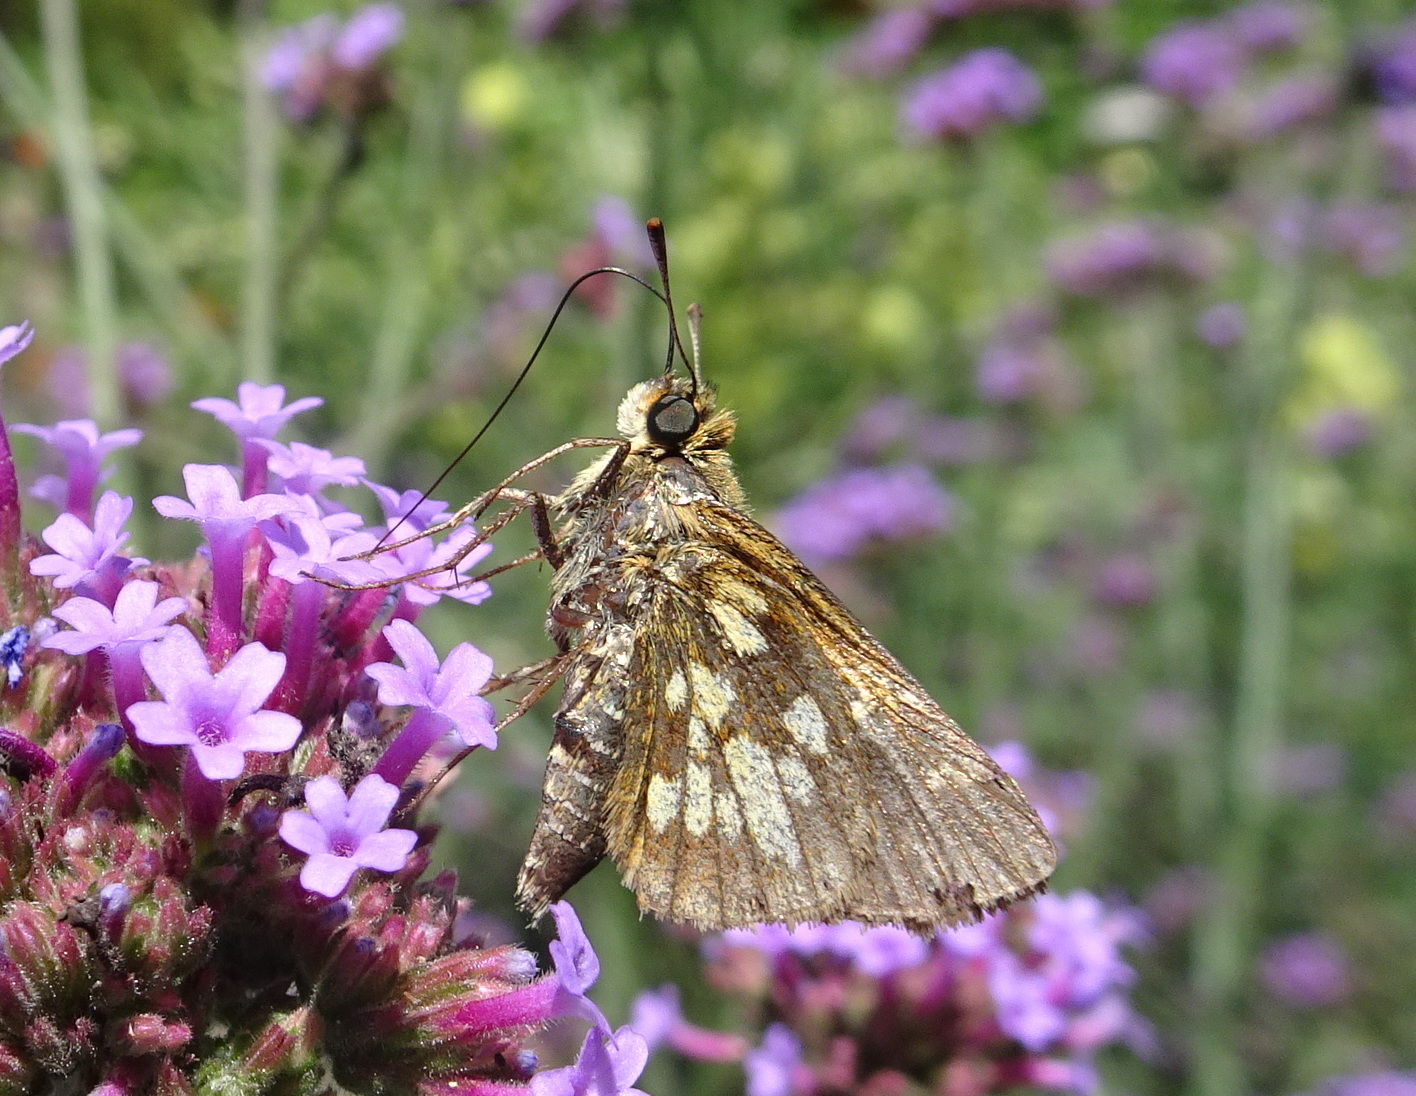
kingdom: Animalia
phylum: Arthropoda
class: Insecta
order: Lepidoptera
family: Hesperiidae
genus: Polites
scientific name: Polites coras
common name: Peck's skipper
